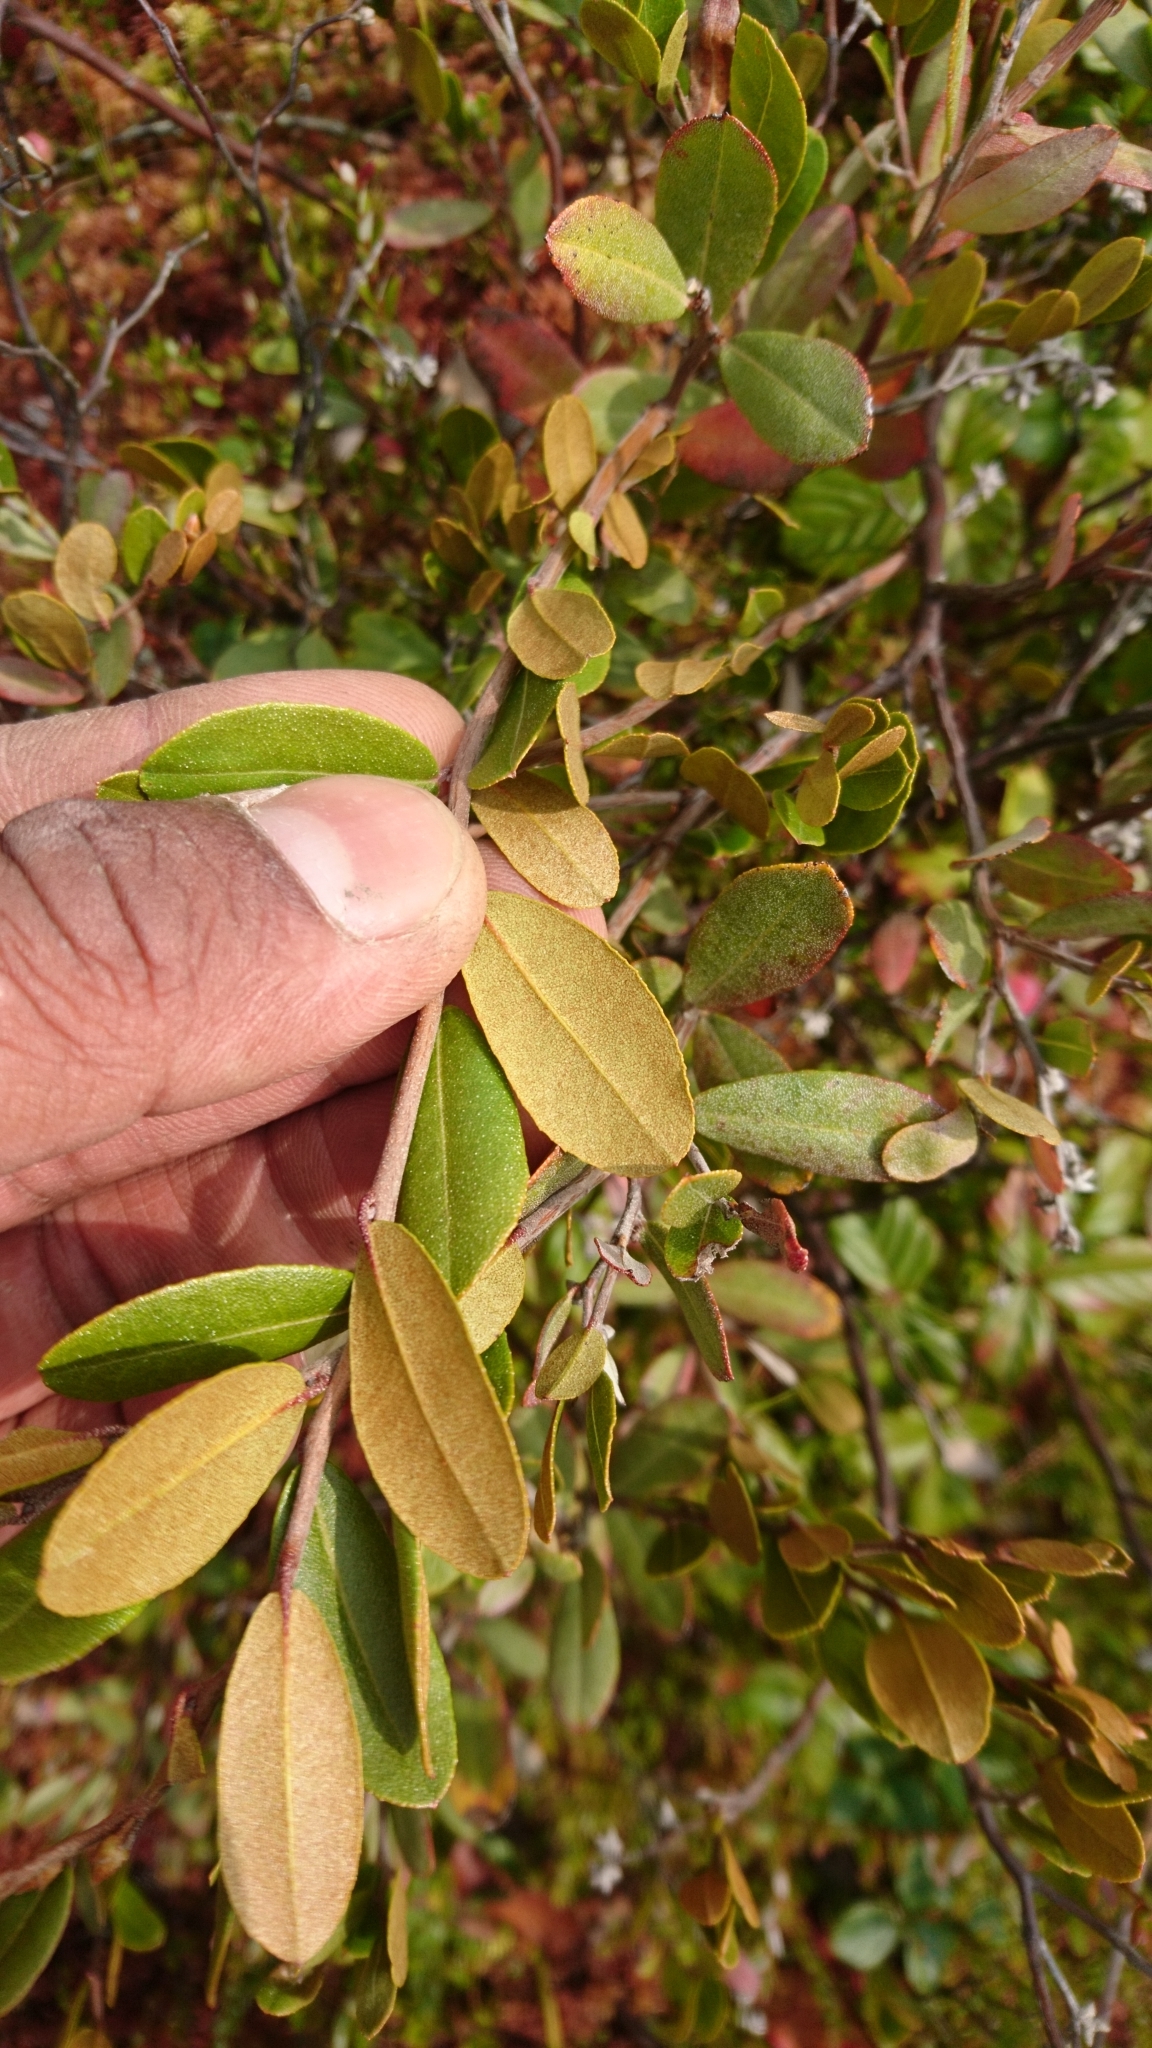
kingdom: Plantae
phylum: Tracheophyta
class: Magnoliopsida
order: Ericales
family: Ericaceae
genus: Chamaedaphne
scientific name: Chamaedaphne calyculata
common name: Leatherleaf
